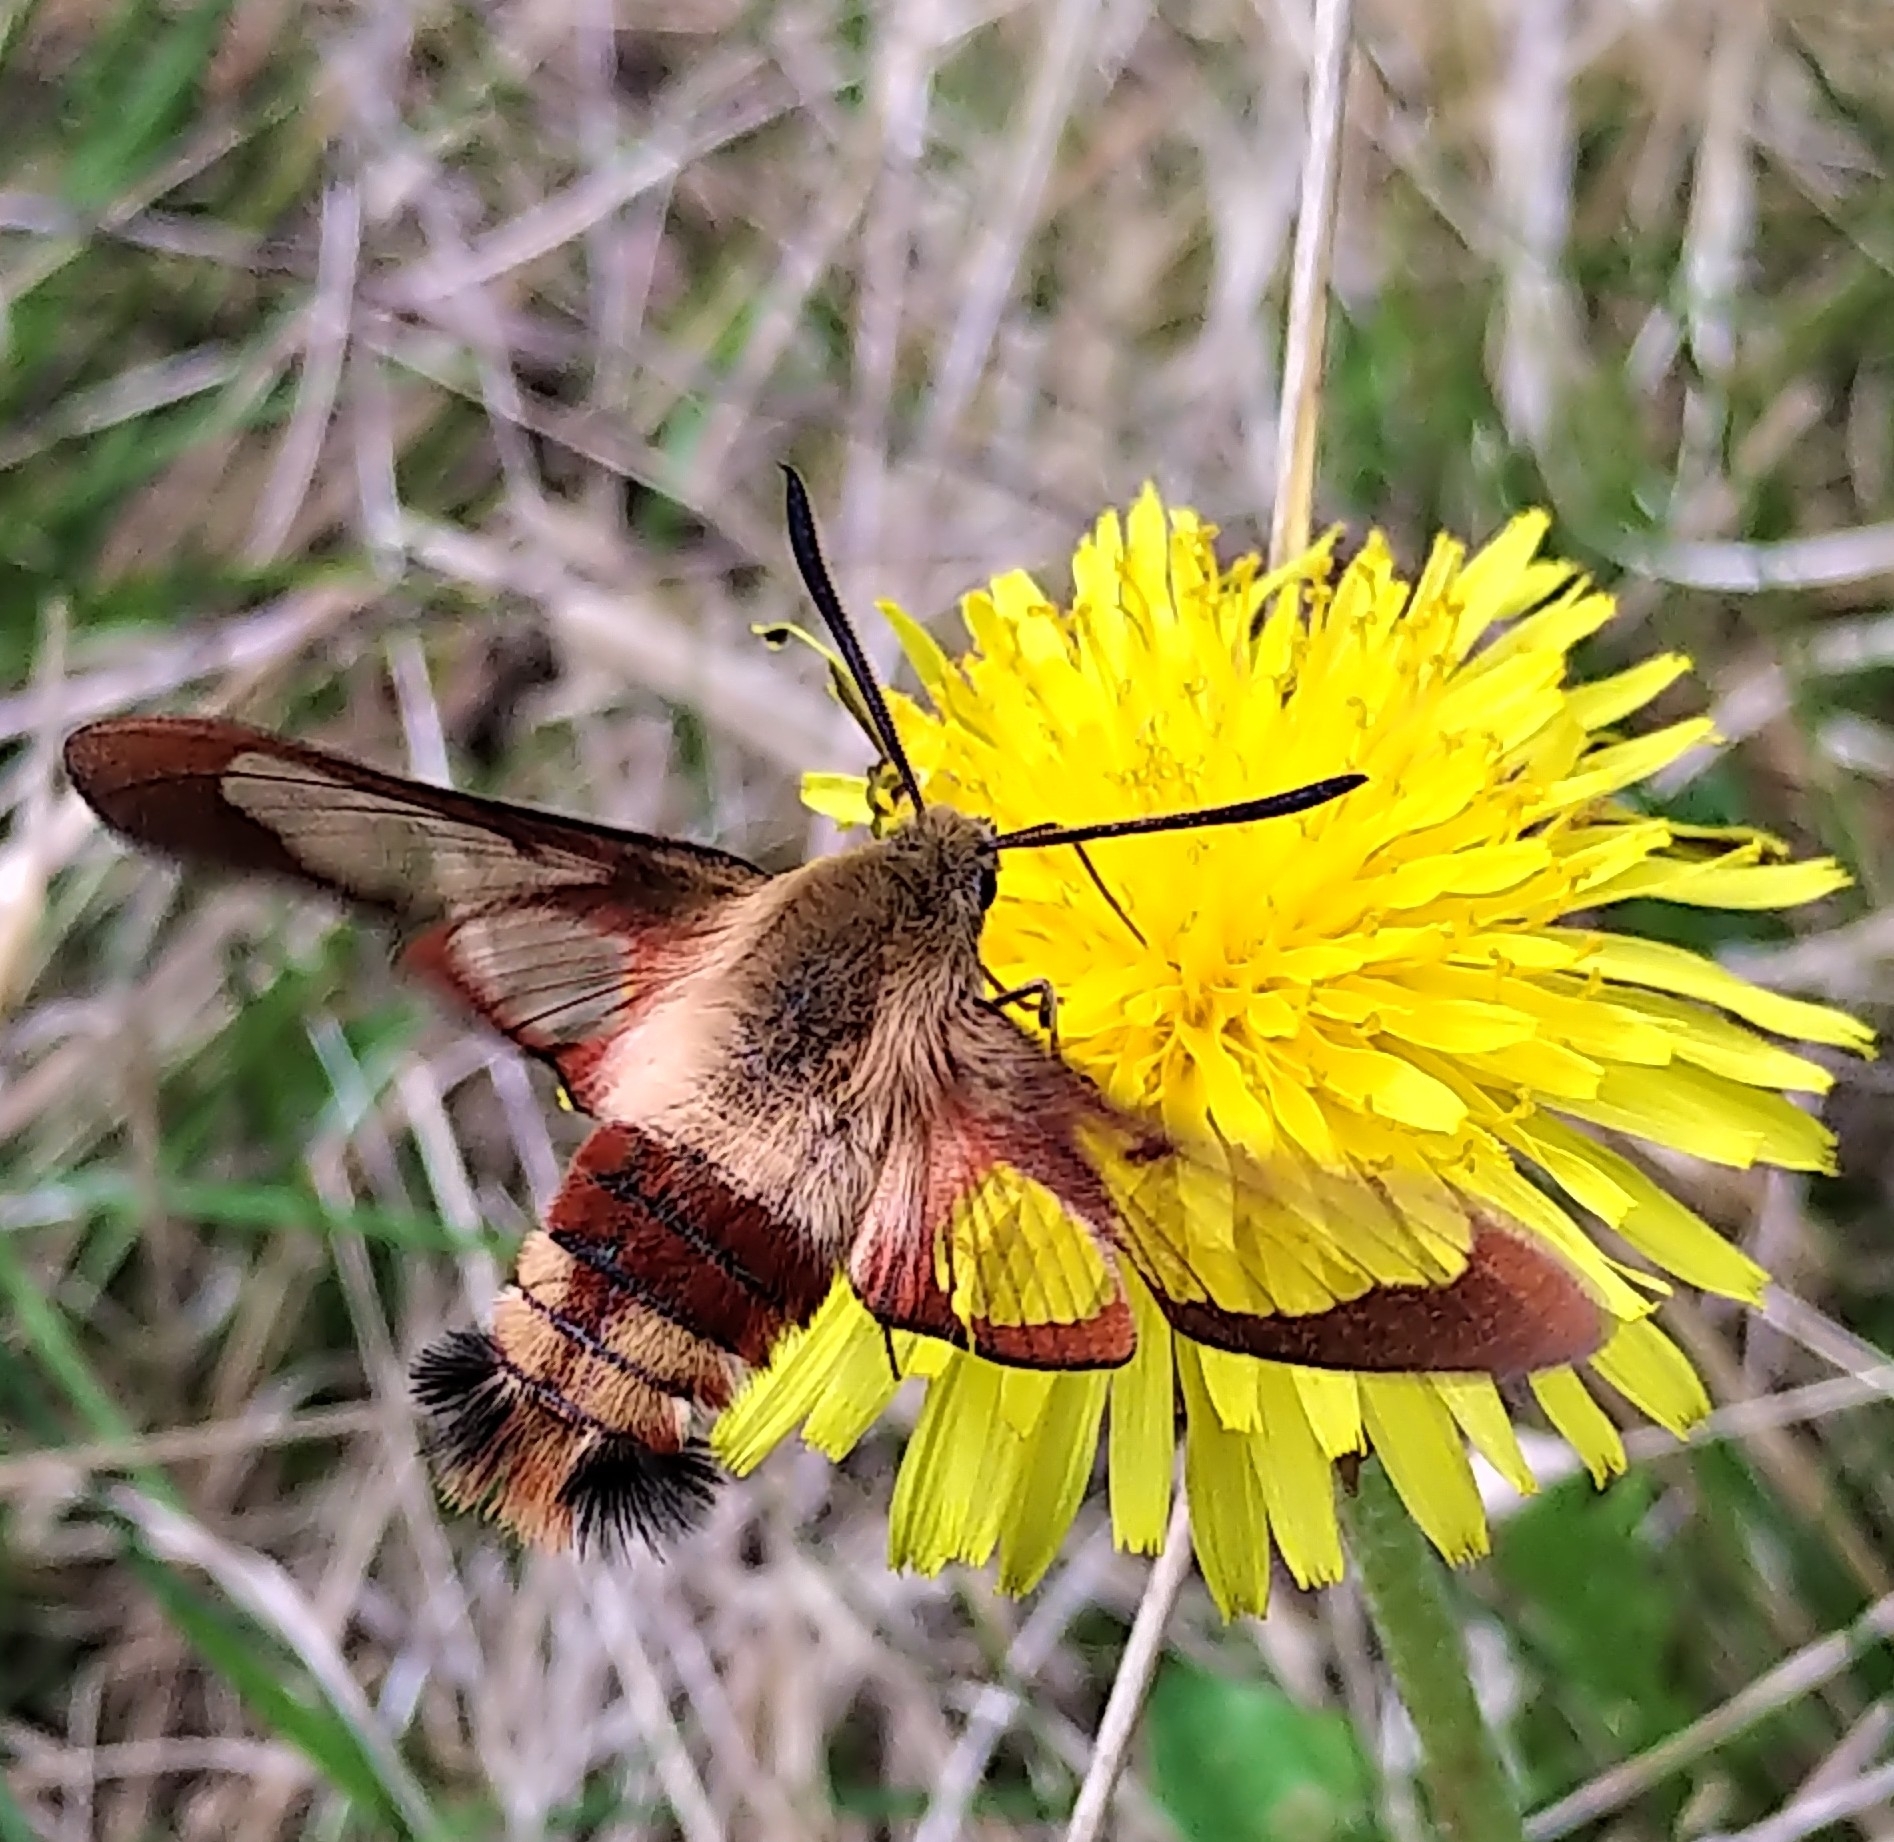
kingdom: Animalia
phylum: Arthropoda
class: Insecta
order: Lepidoptera
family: Sphingidae
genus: Hemaris
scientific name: Hemaris thysbe
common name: Common clear-wing
